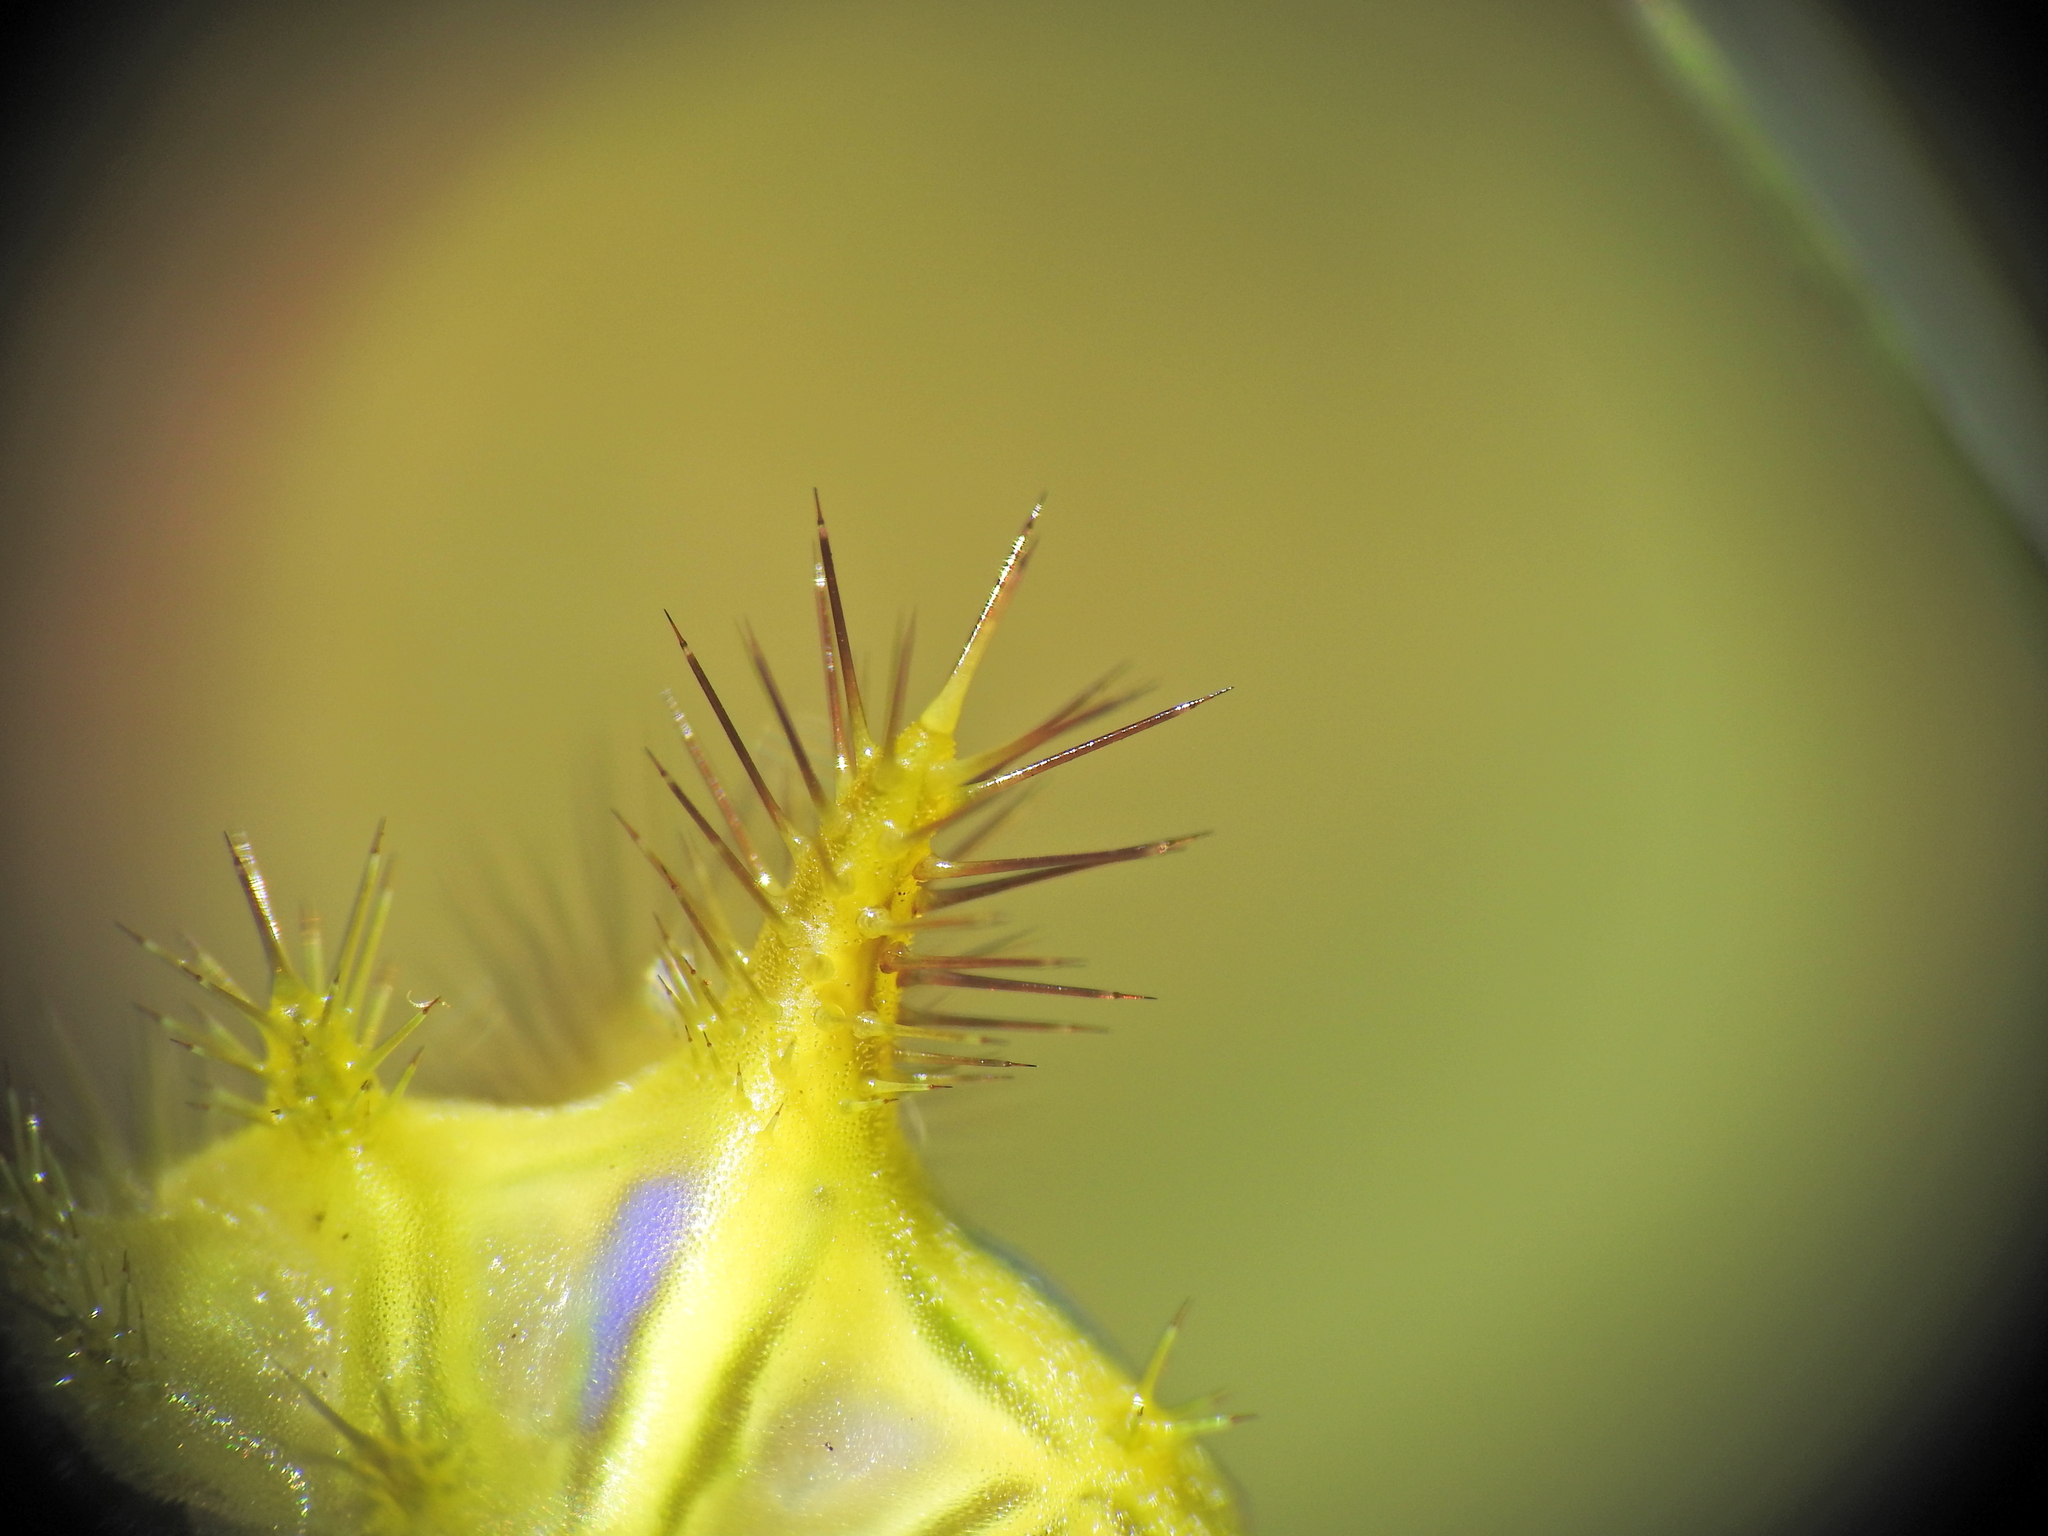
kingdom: Animalia
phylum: Arthropoda
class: Insecta
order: Lepidoptera
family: Limacodidae
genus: Anaxidia
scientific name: Anaxidia lozogramma
